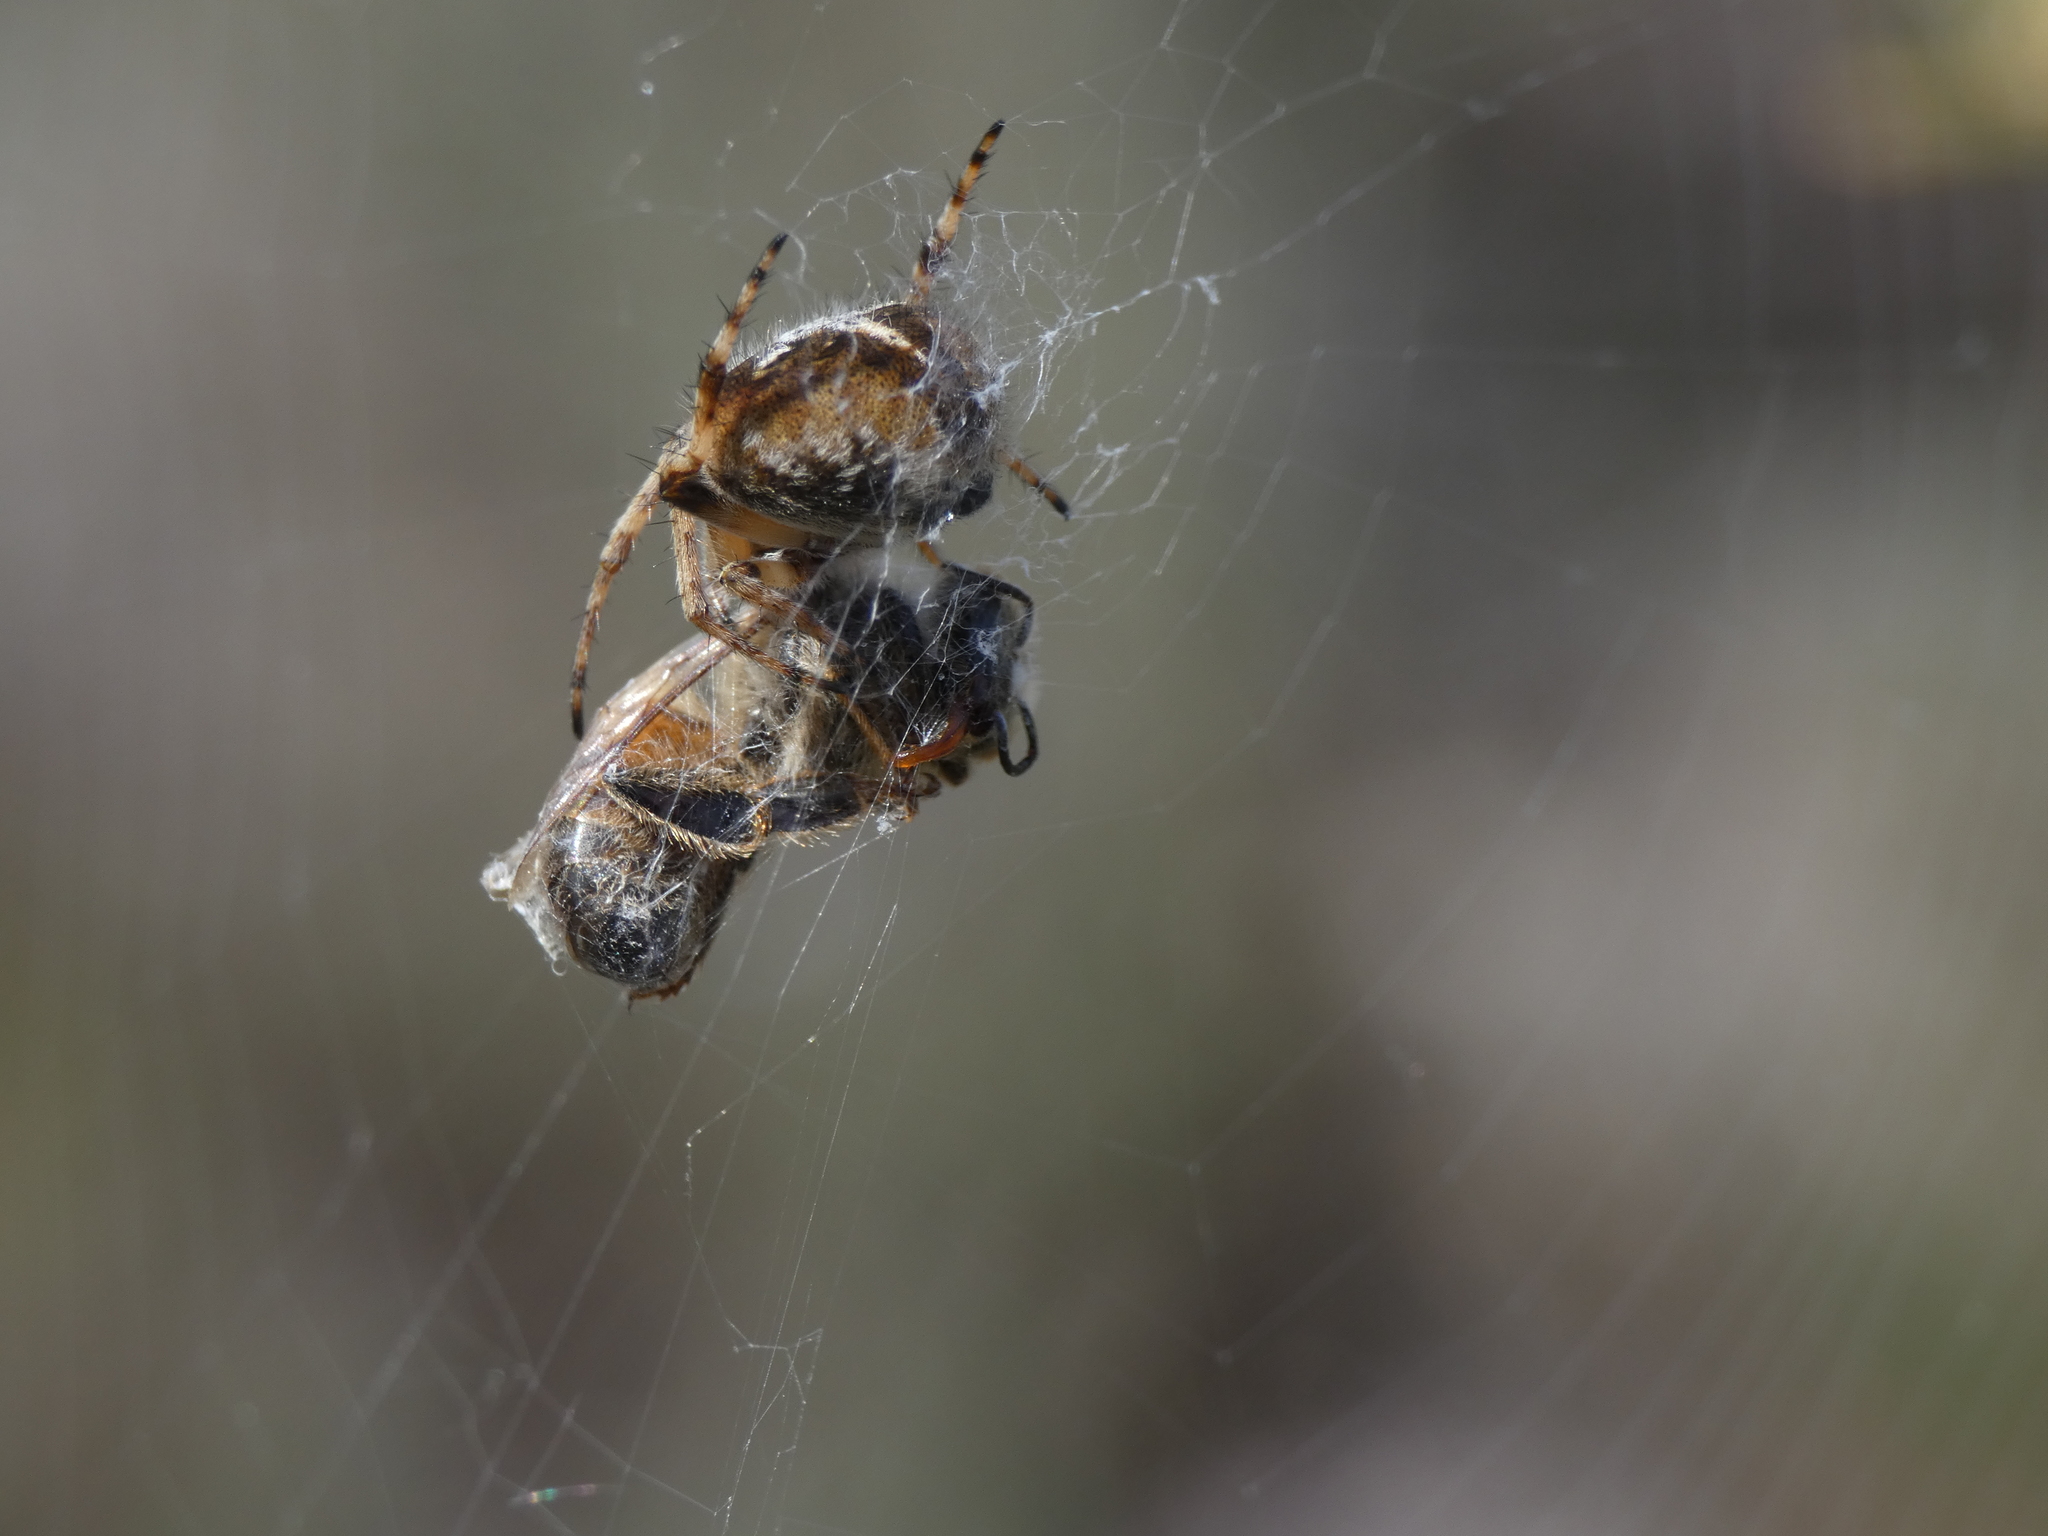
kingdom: Animalia
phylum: Arthropoda
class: Arachnida
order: Araneae
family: Araneidae
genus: Agalenatea
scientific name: Agalenatea redii
